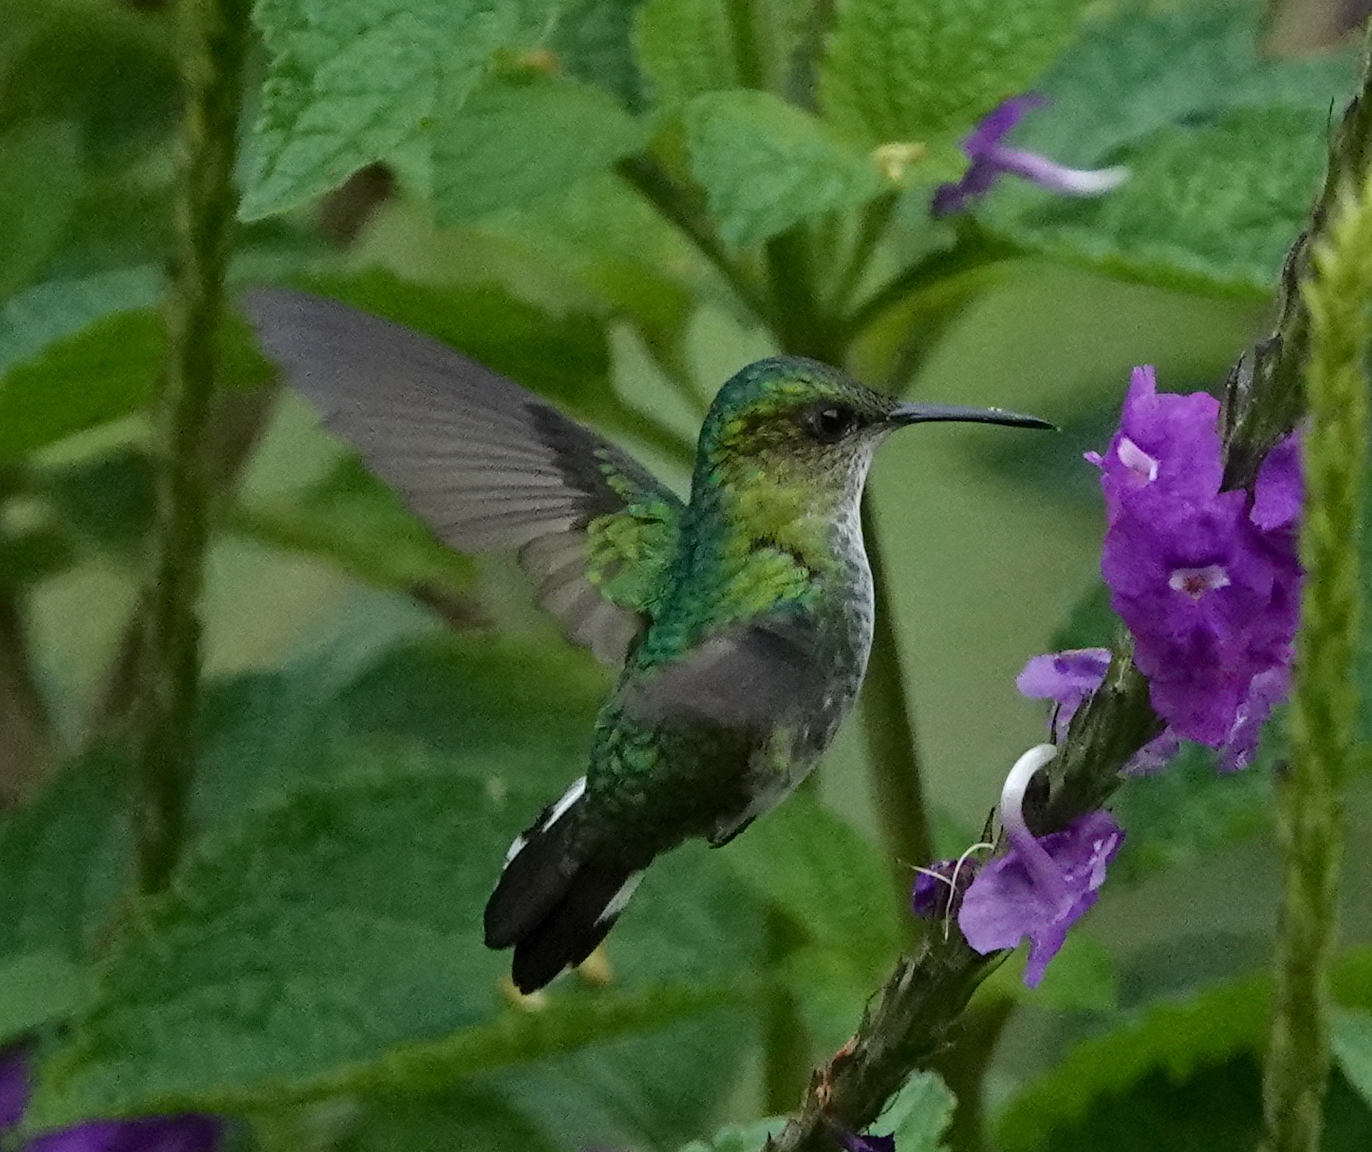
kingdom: Animalia
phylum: Chordata
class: Aves
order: Apodiformes
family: Trochilidae
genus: Microchera
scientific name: Microchera chionura
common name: White-tailed emerald
